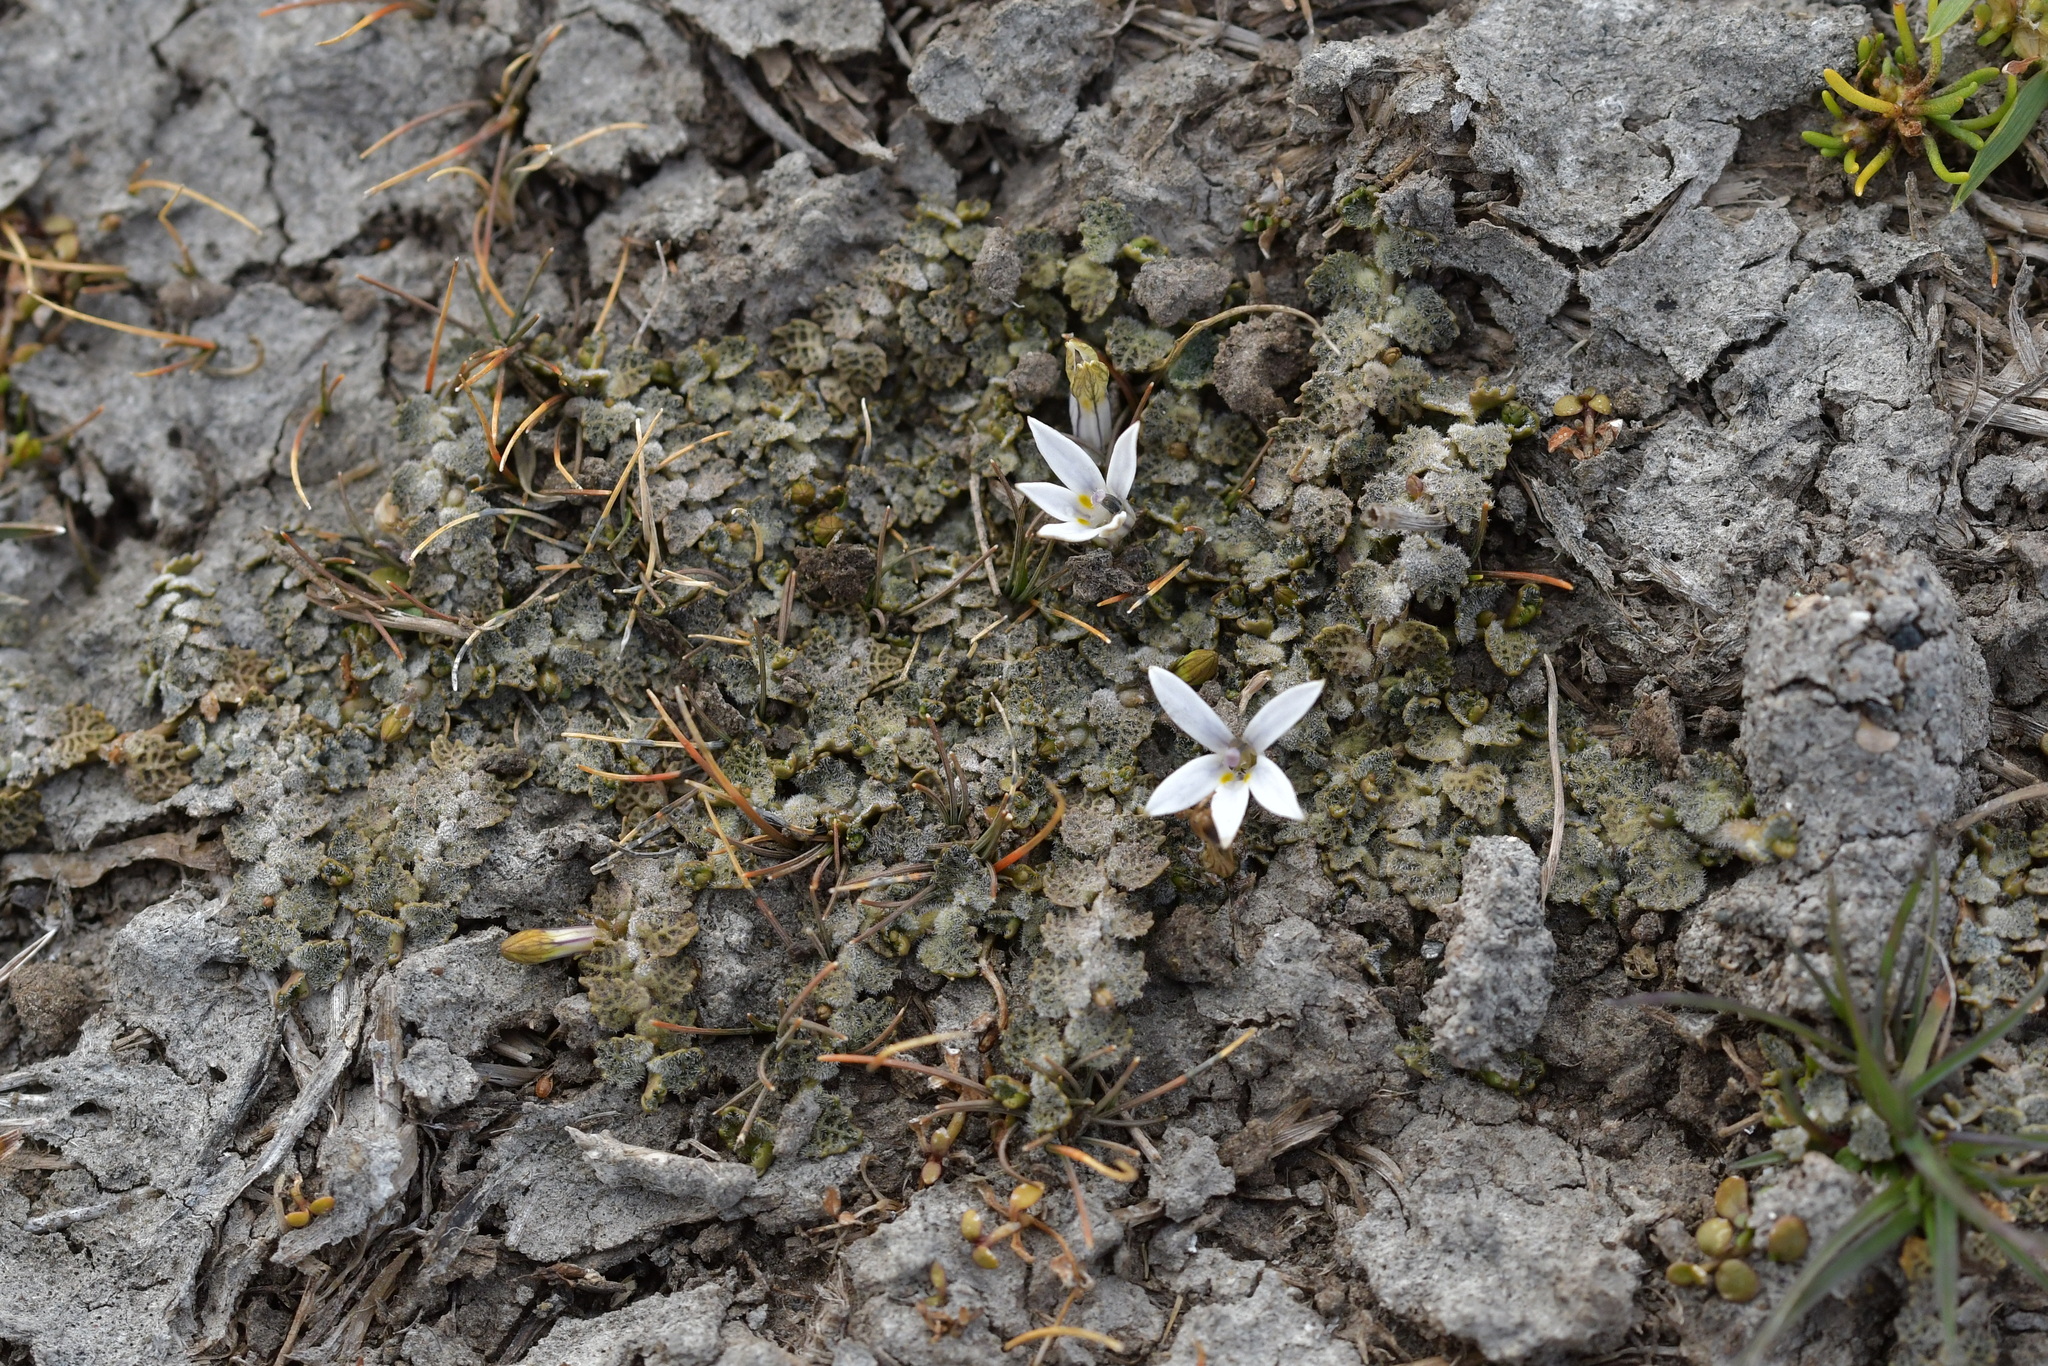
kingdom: Plantae
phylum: Tracheophyta
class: Magnoliopsida
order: Asterales
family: Campanulaceae
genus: Lobelia
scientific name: Lobelia perpusilla
